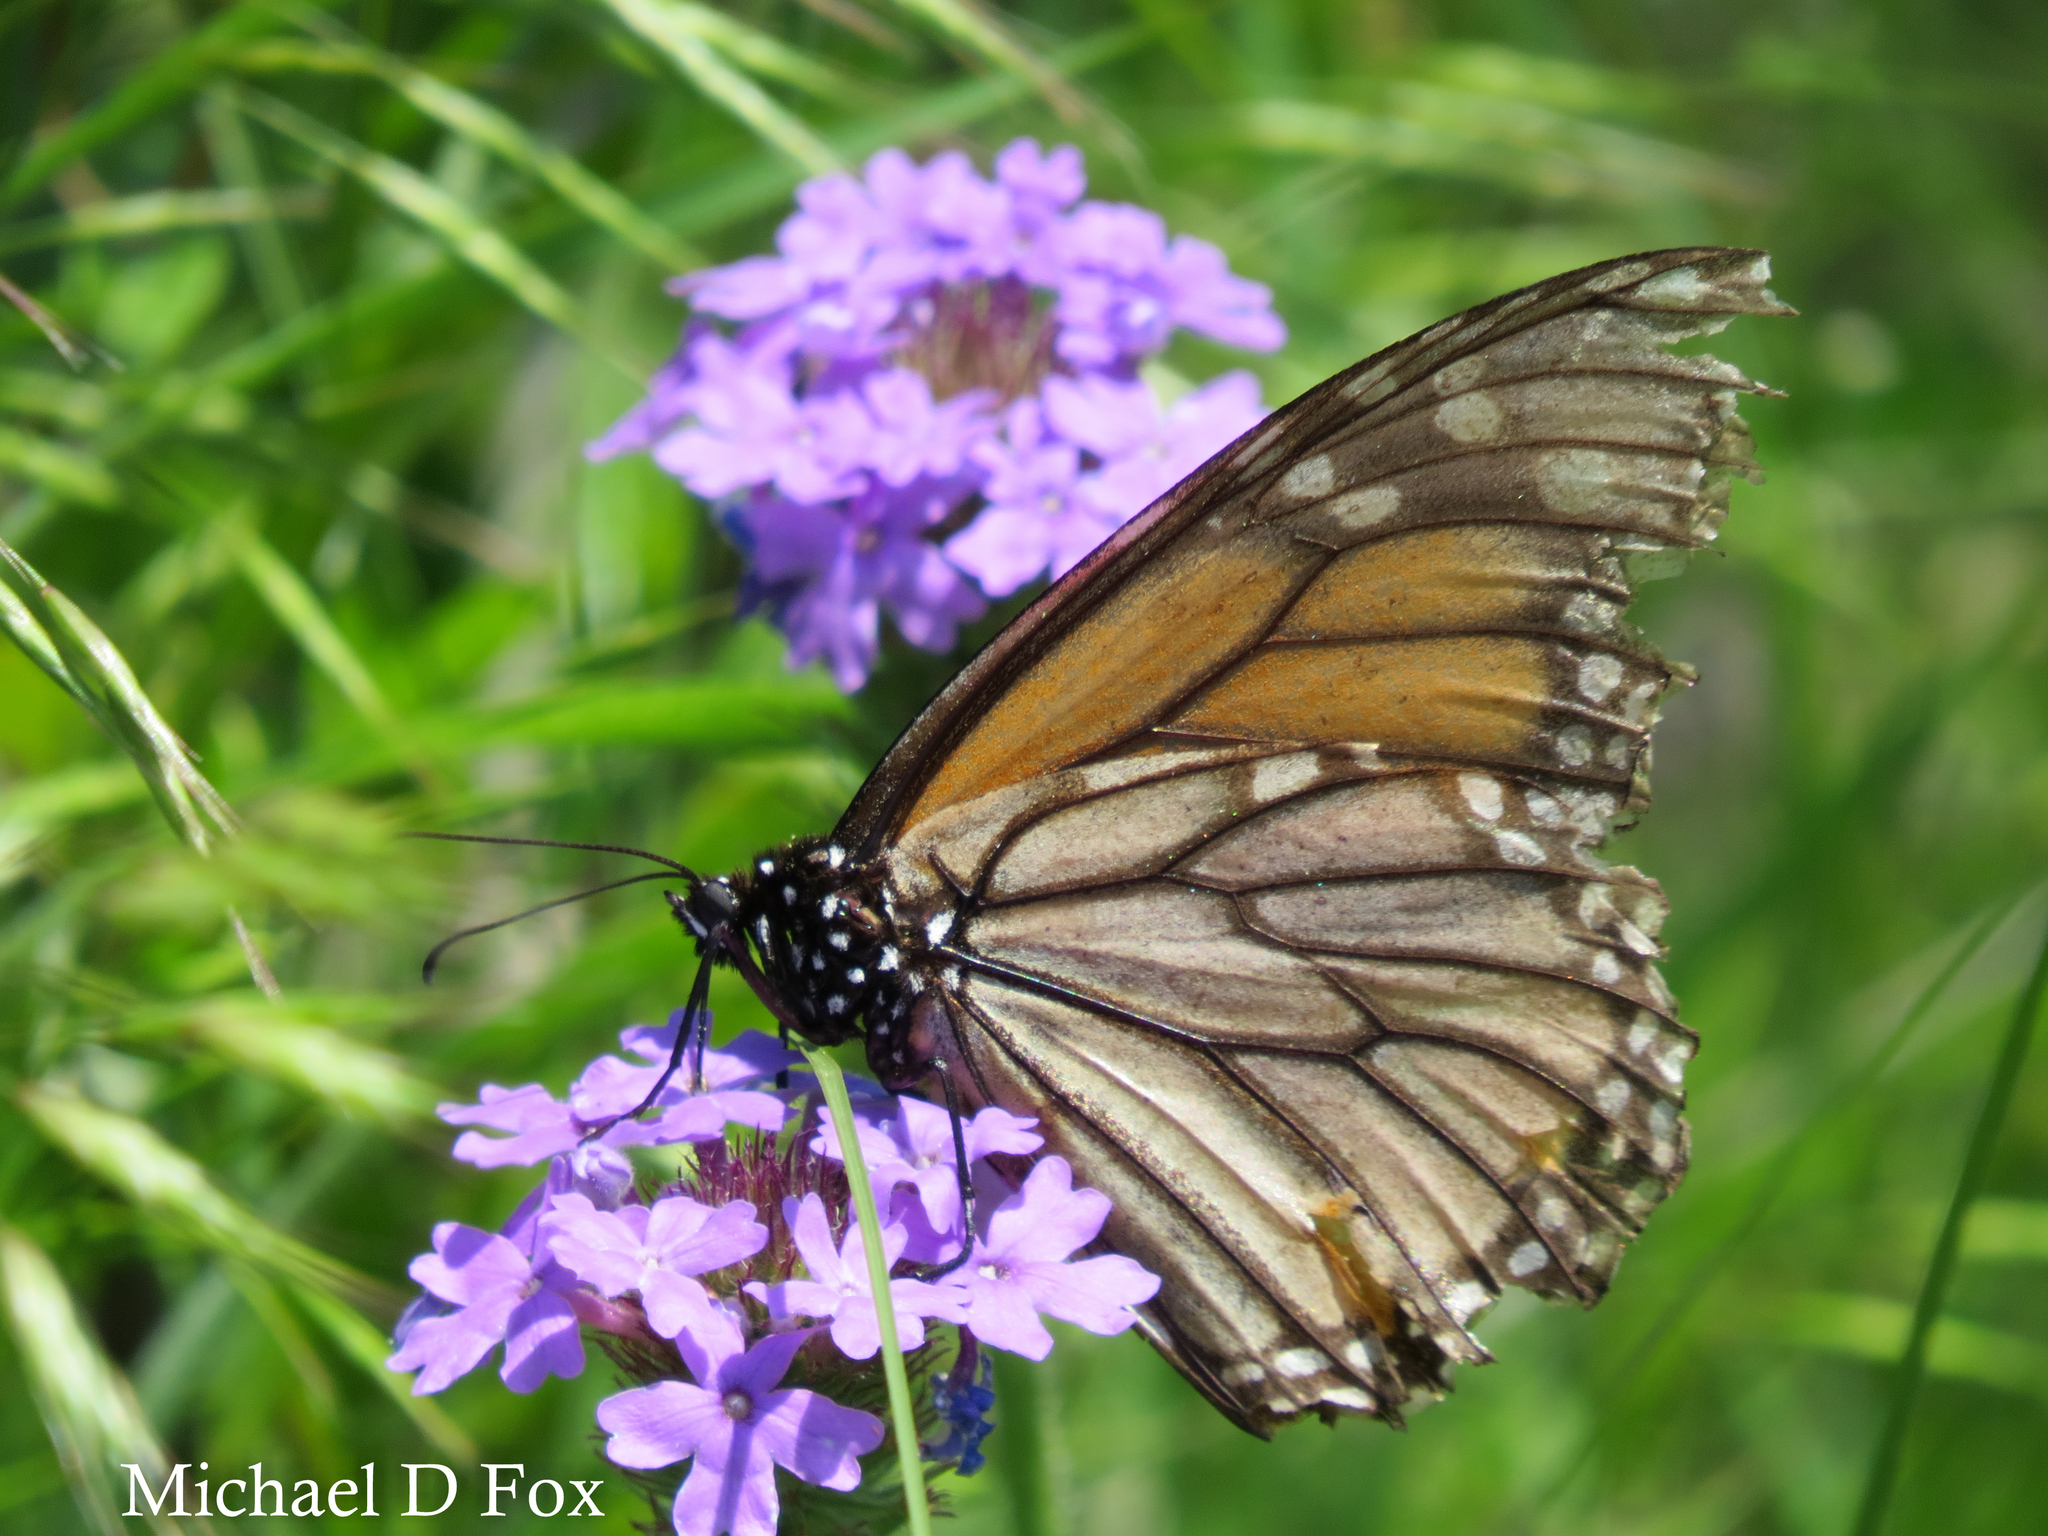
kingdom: Animalia
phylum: Arthropoda
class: Insecta
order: Lepidoptera
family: Nymphalidae
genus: Danaus
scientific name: Danaus plexippus
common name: Monarch
